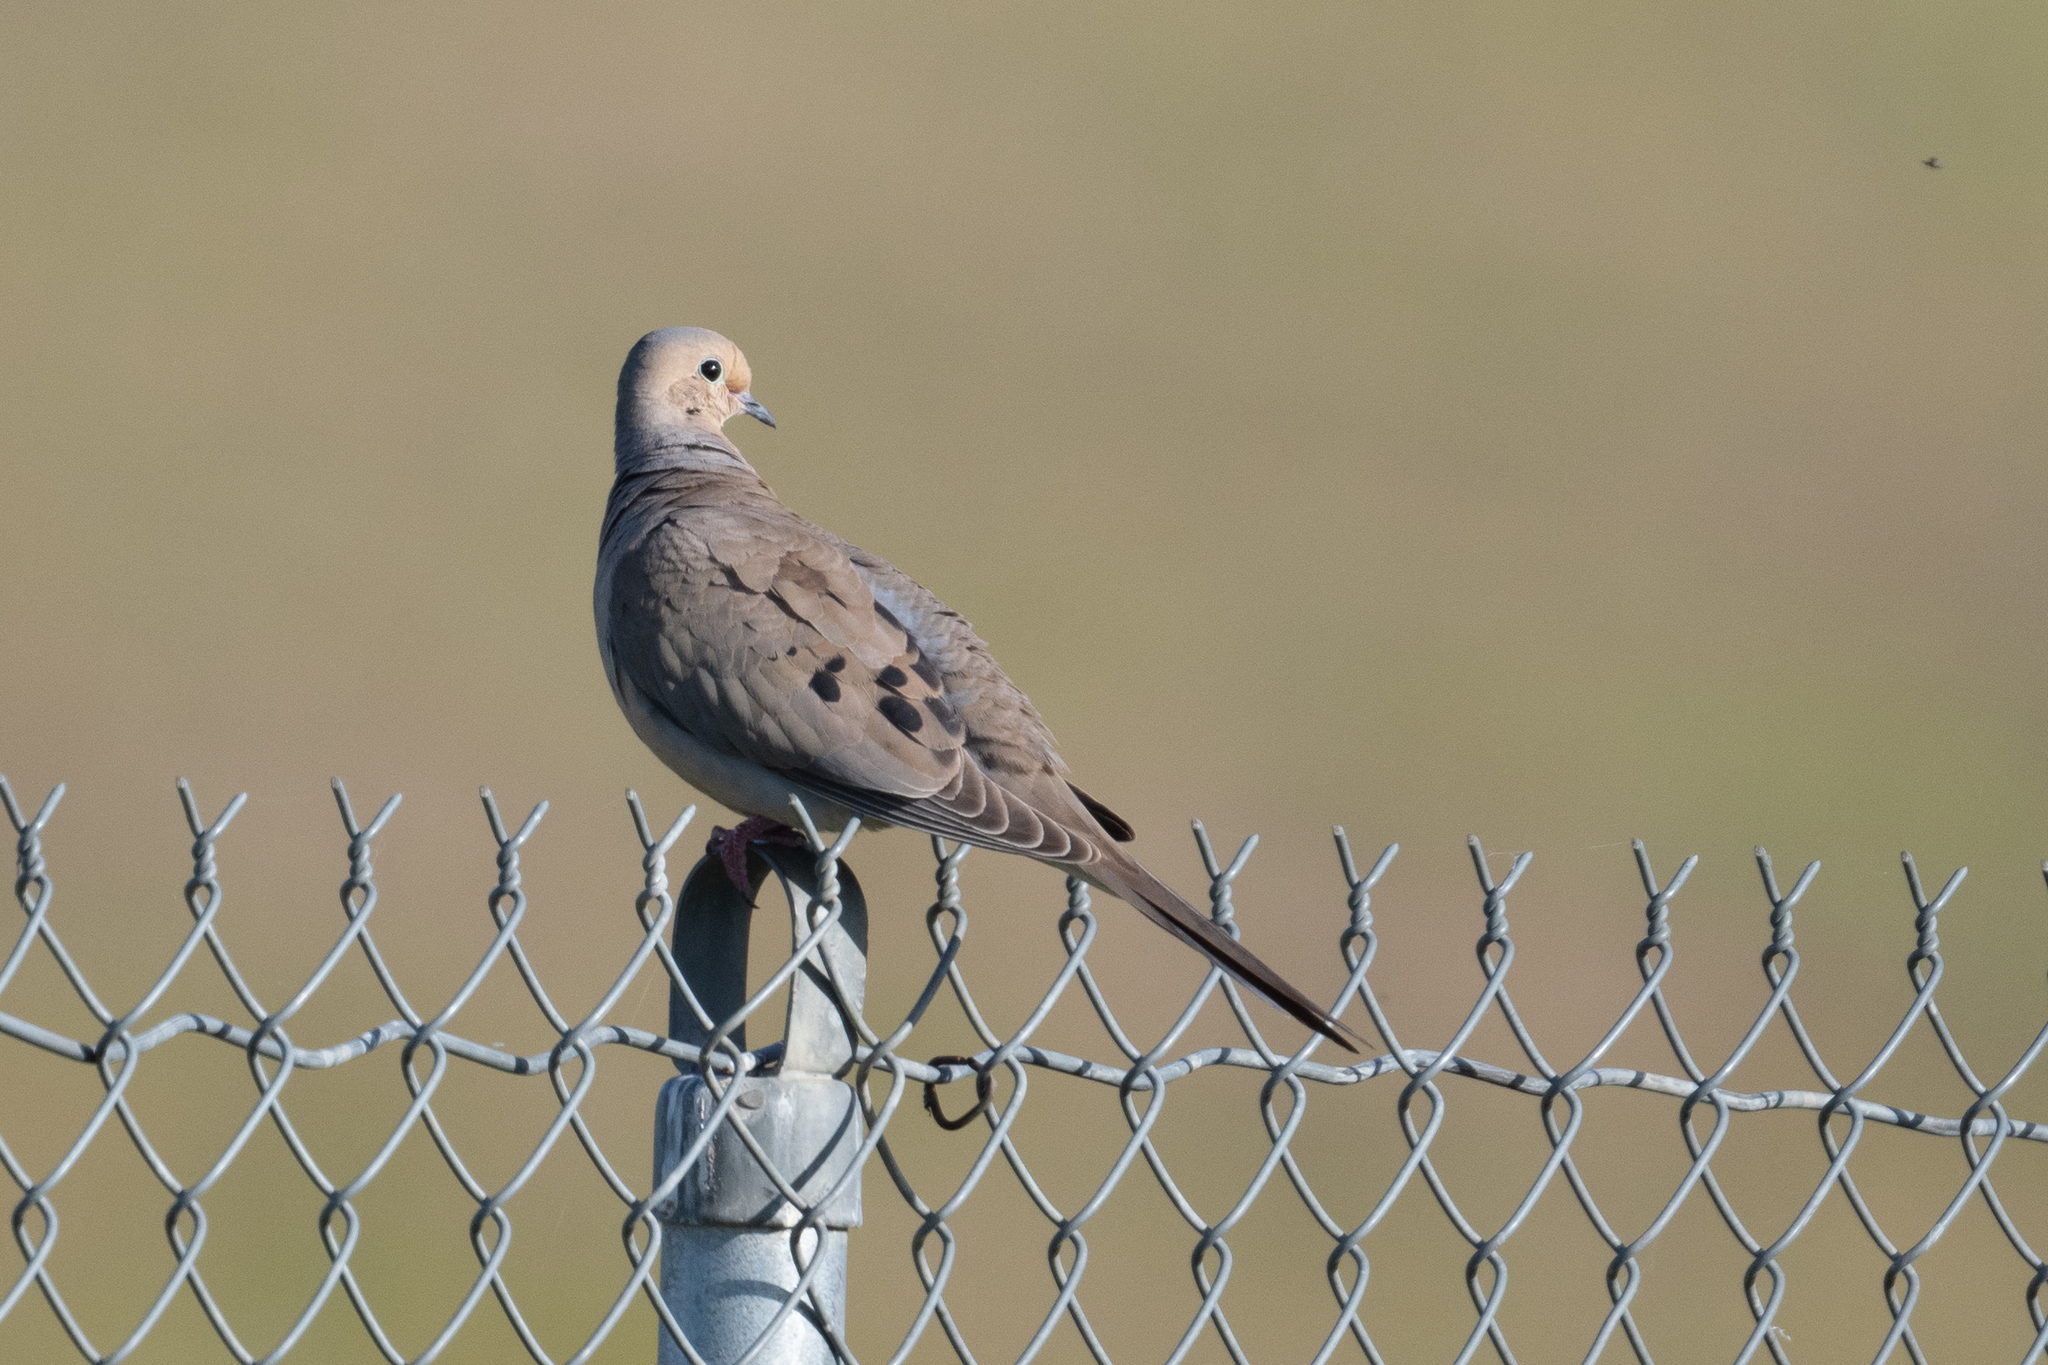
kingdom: Animalia
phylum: Chordata
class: Aves
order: Columbiformes
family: Columbidae
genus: Zenaida
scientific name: Zenaida macroura
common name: Mourning dove
